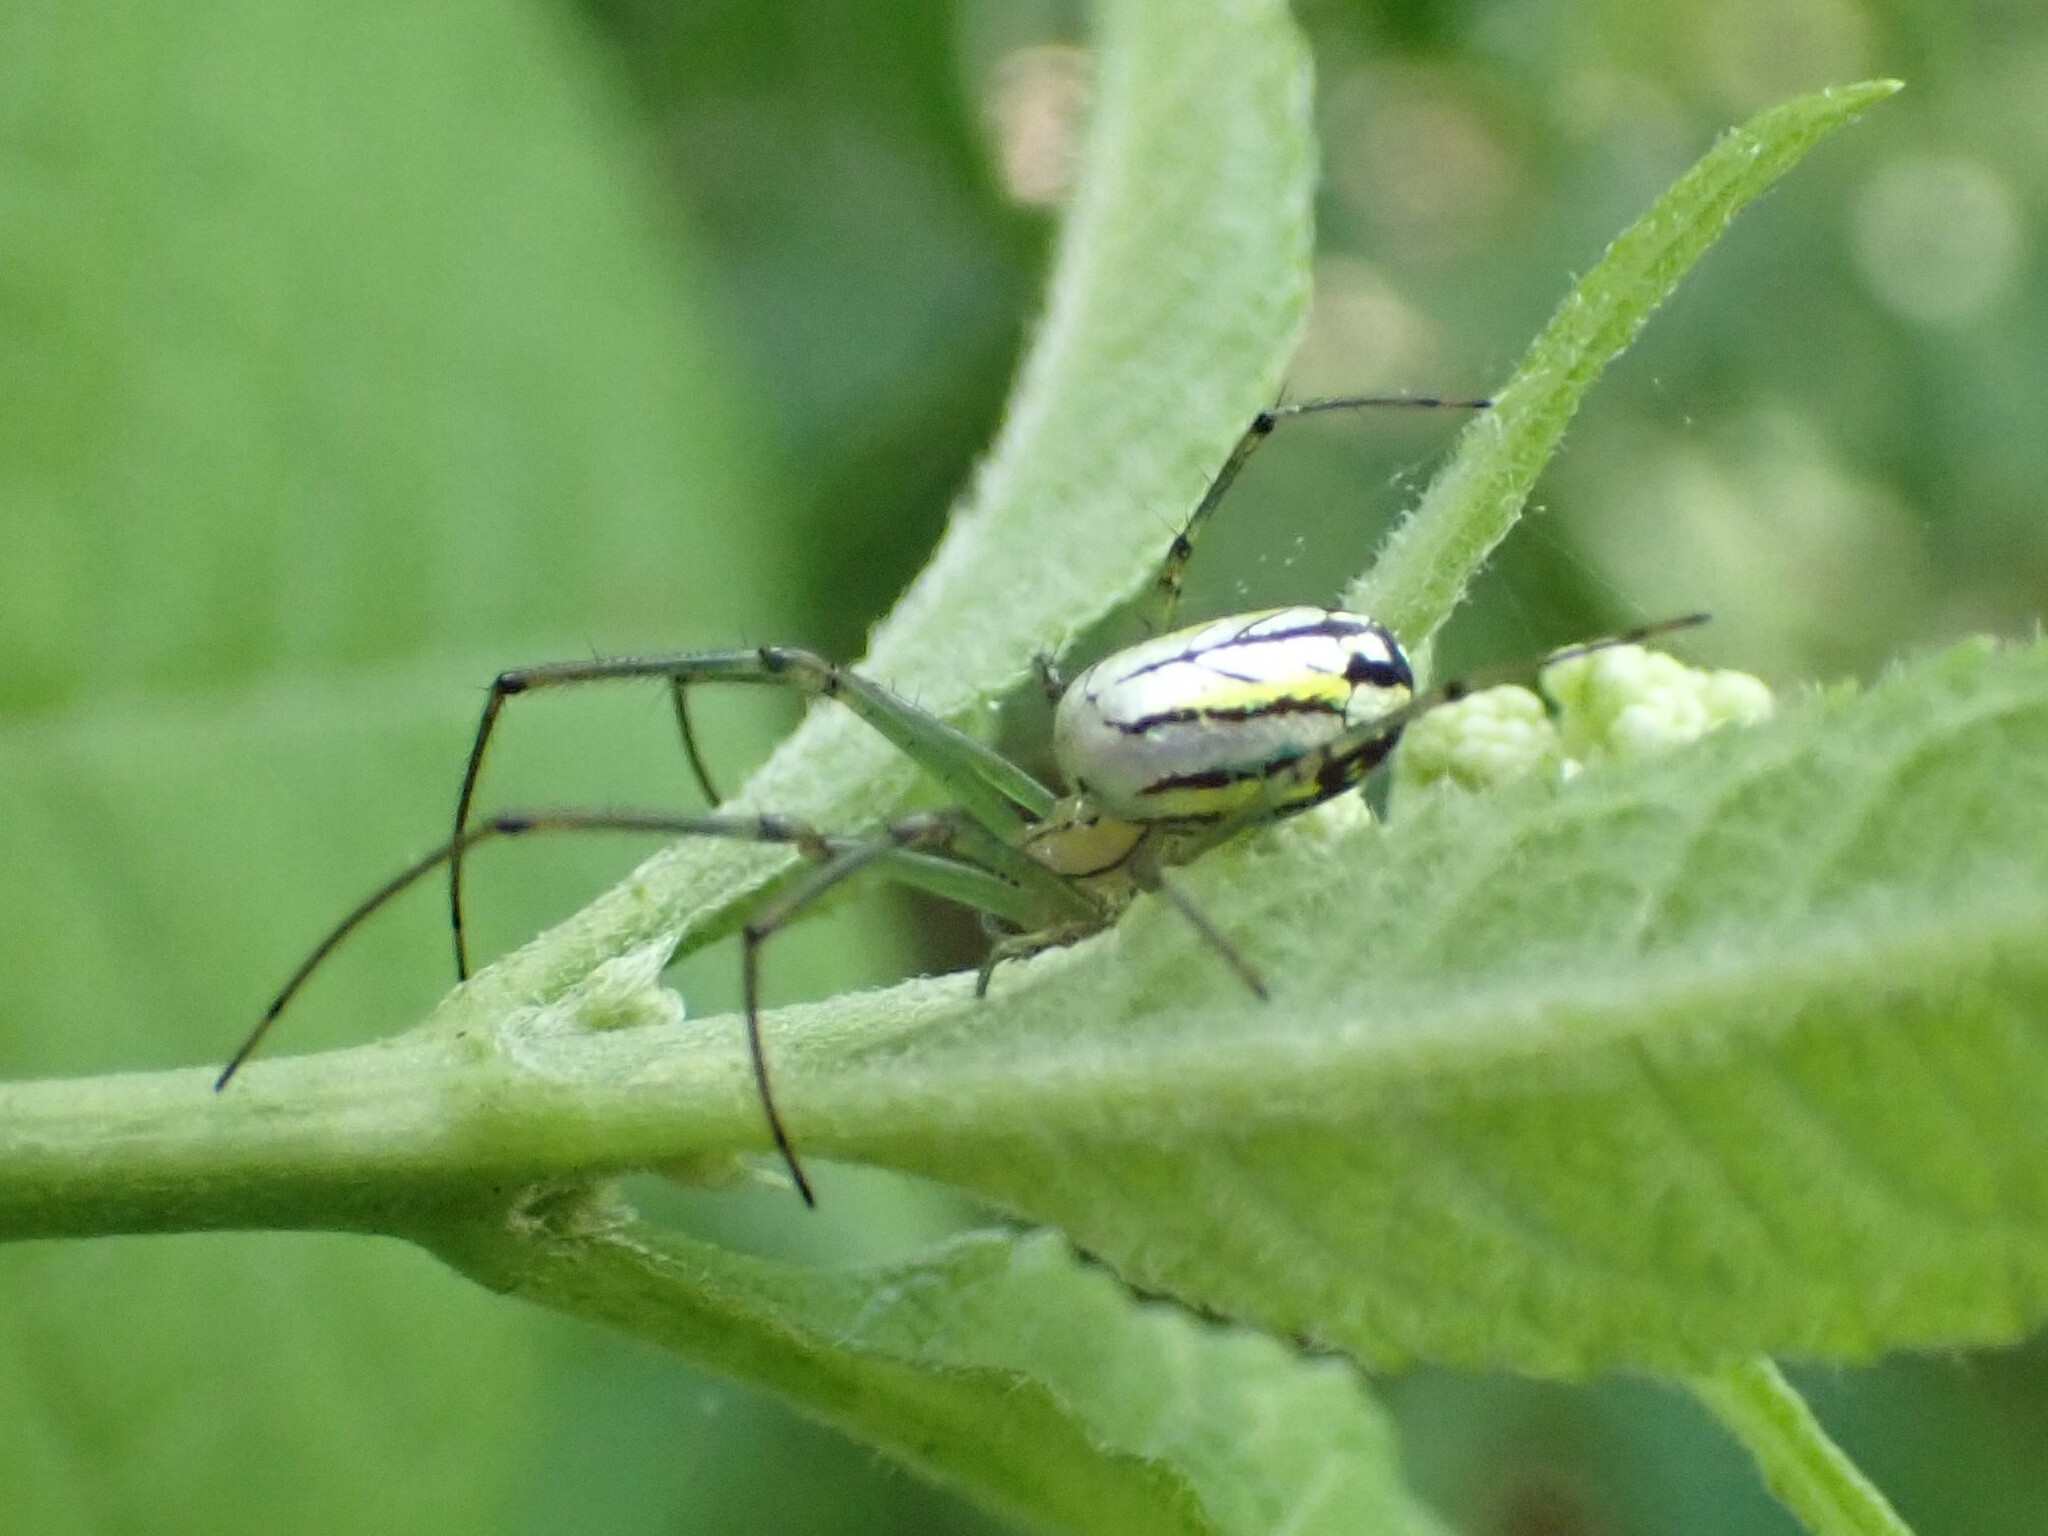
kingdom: Animalia
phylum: Arthropoda
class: Arachnida
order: Araneae
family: Tetragnathidae
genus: Leucauge
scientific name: Leucauge venusta
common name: Longjawed orb weavers
